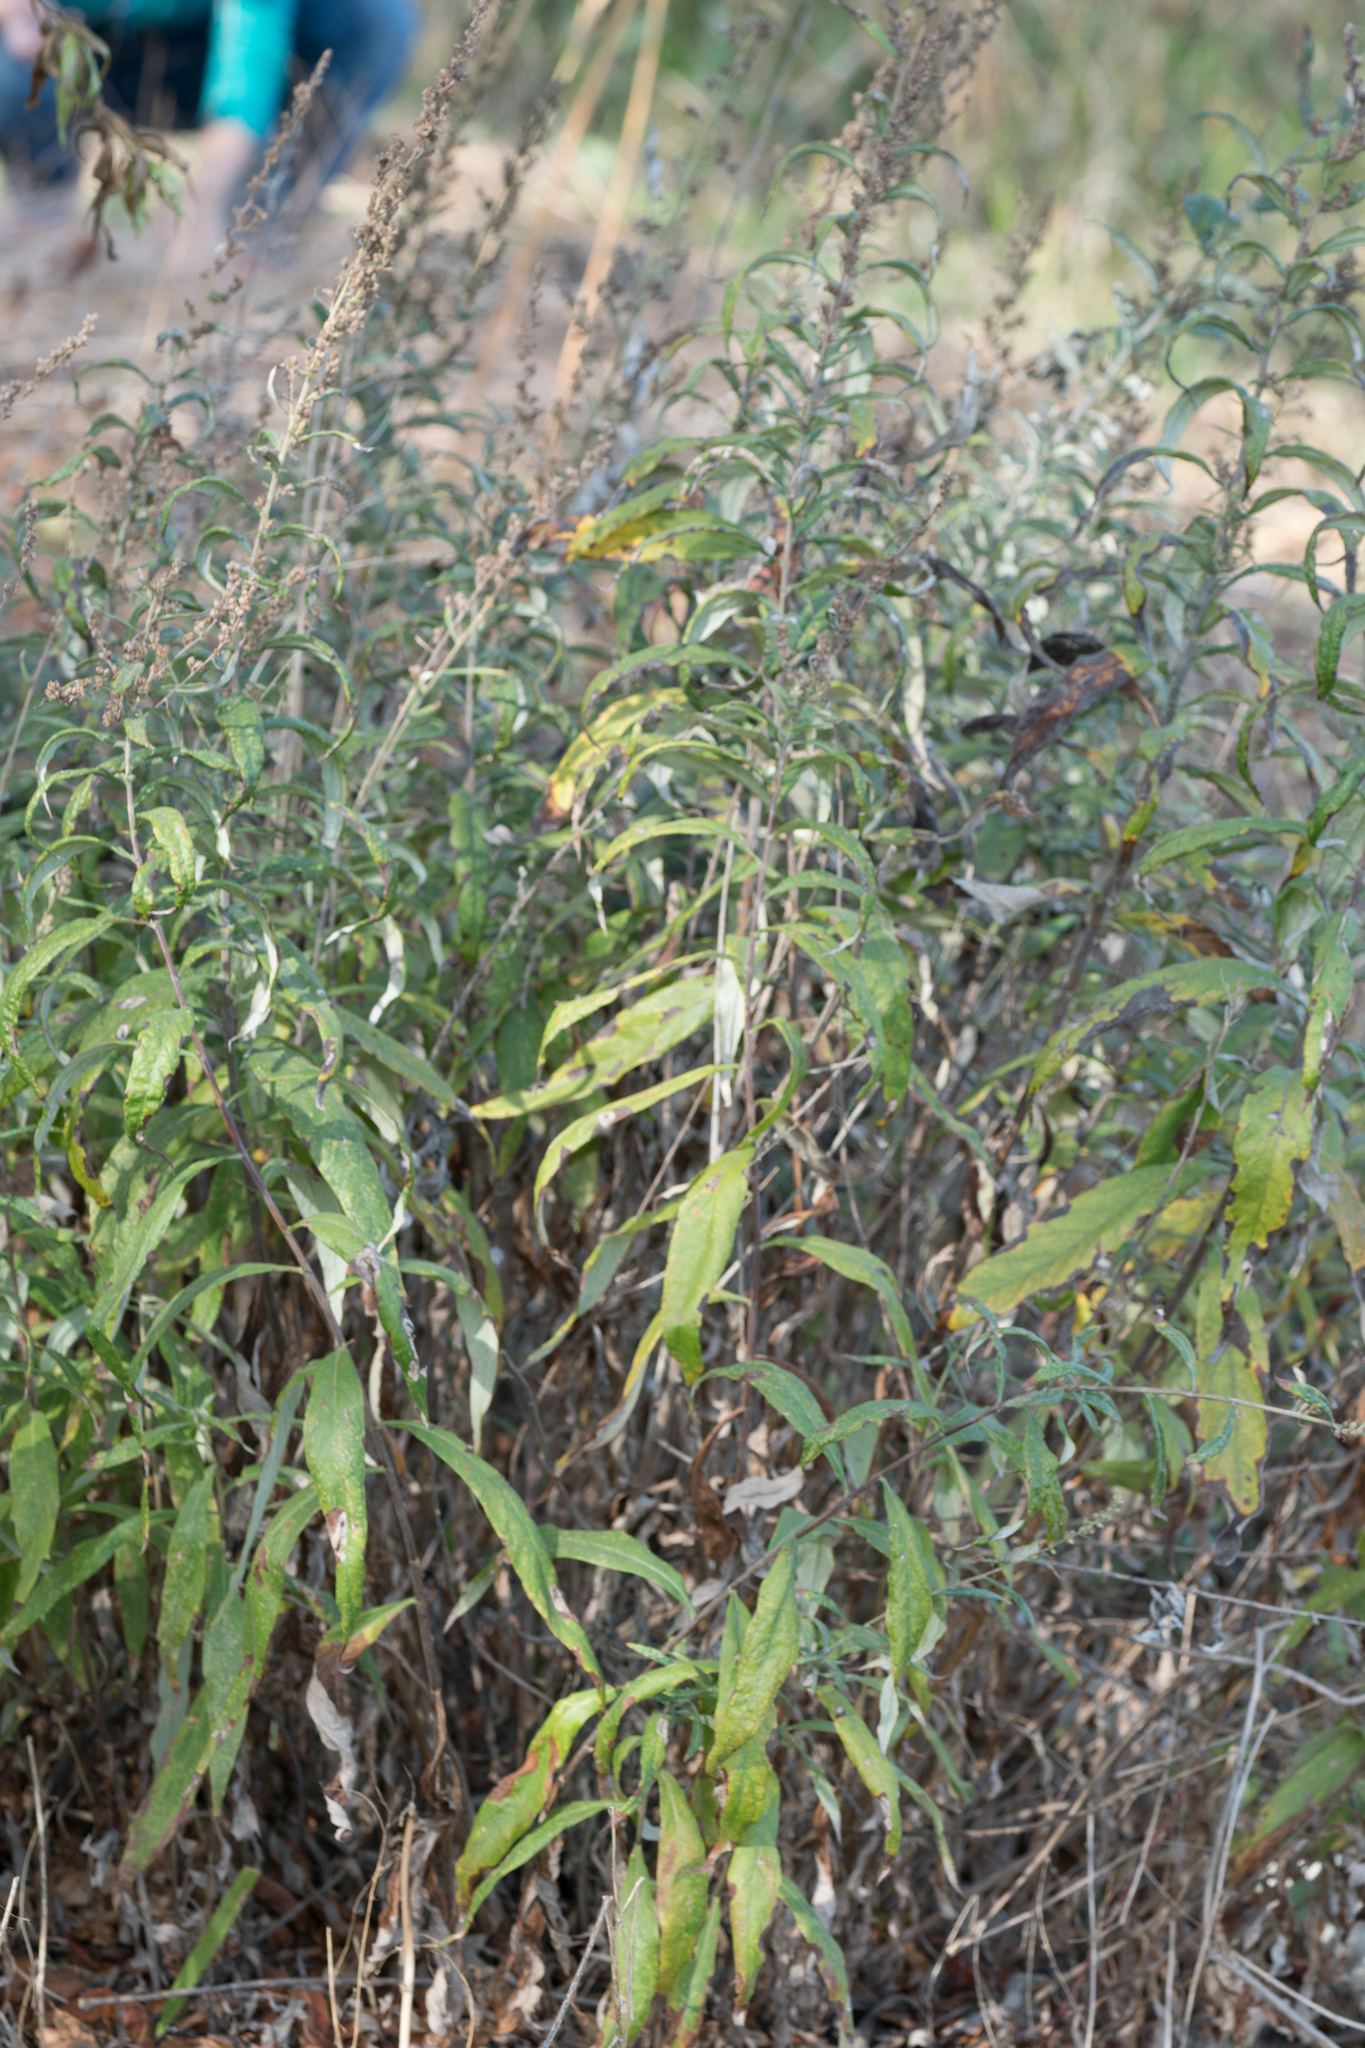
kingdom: Plantae
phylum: Tracheophyta
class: Magnoliopsida
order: Asterales
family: Asteraceae
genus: Artemisia
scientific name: Artemisia douglasiana
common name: Northwest mugwort
